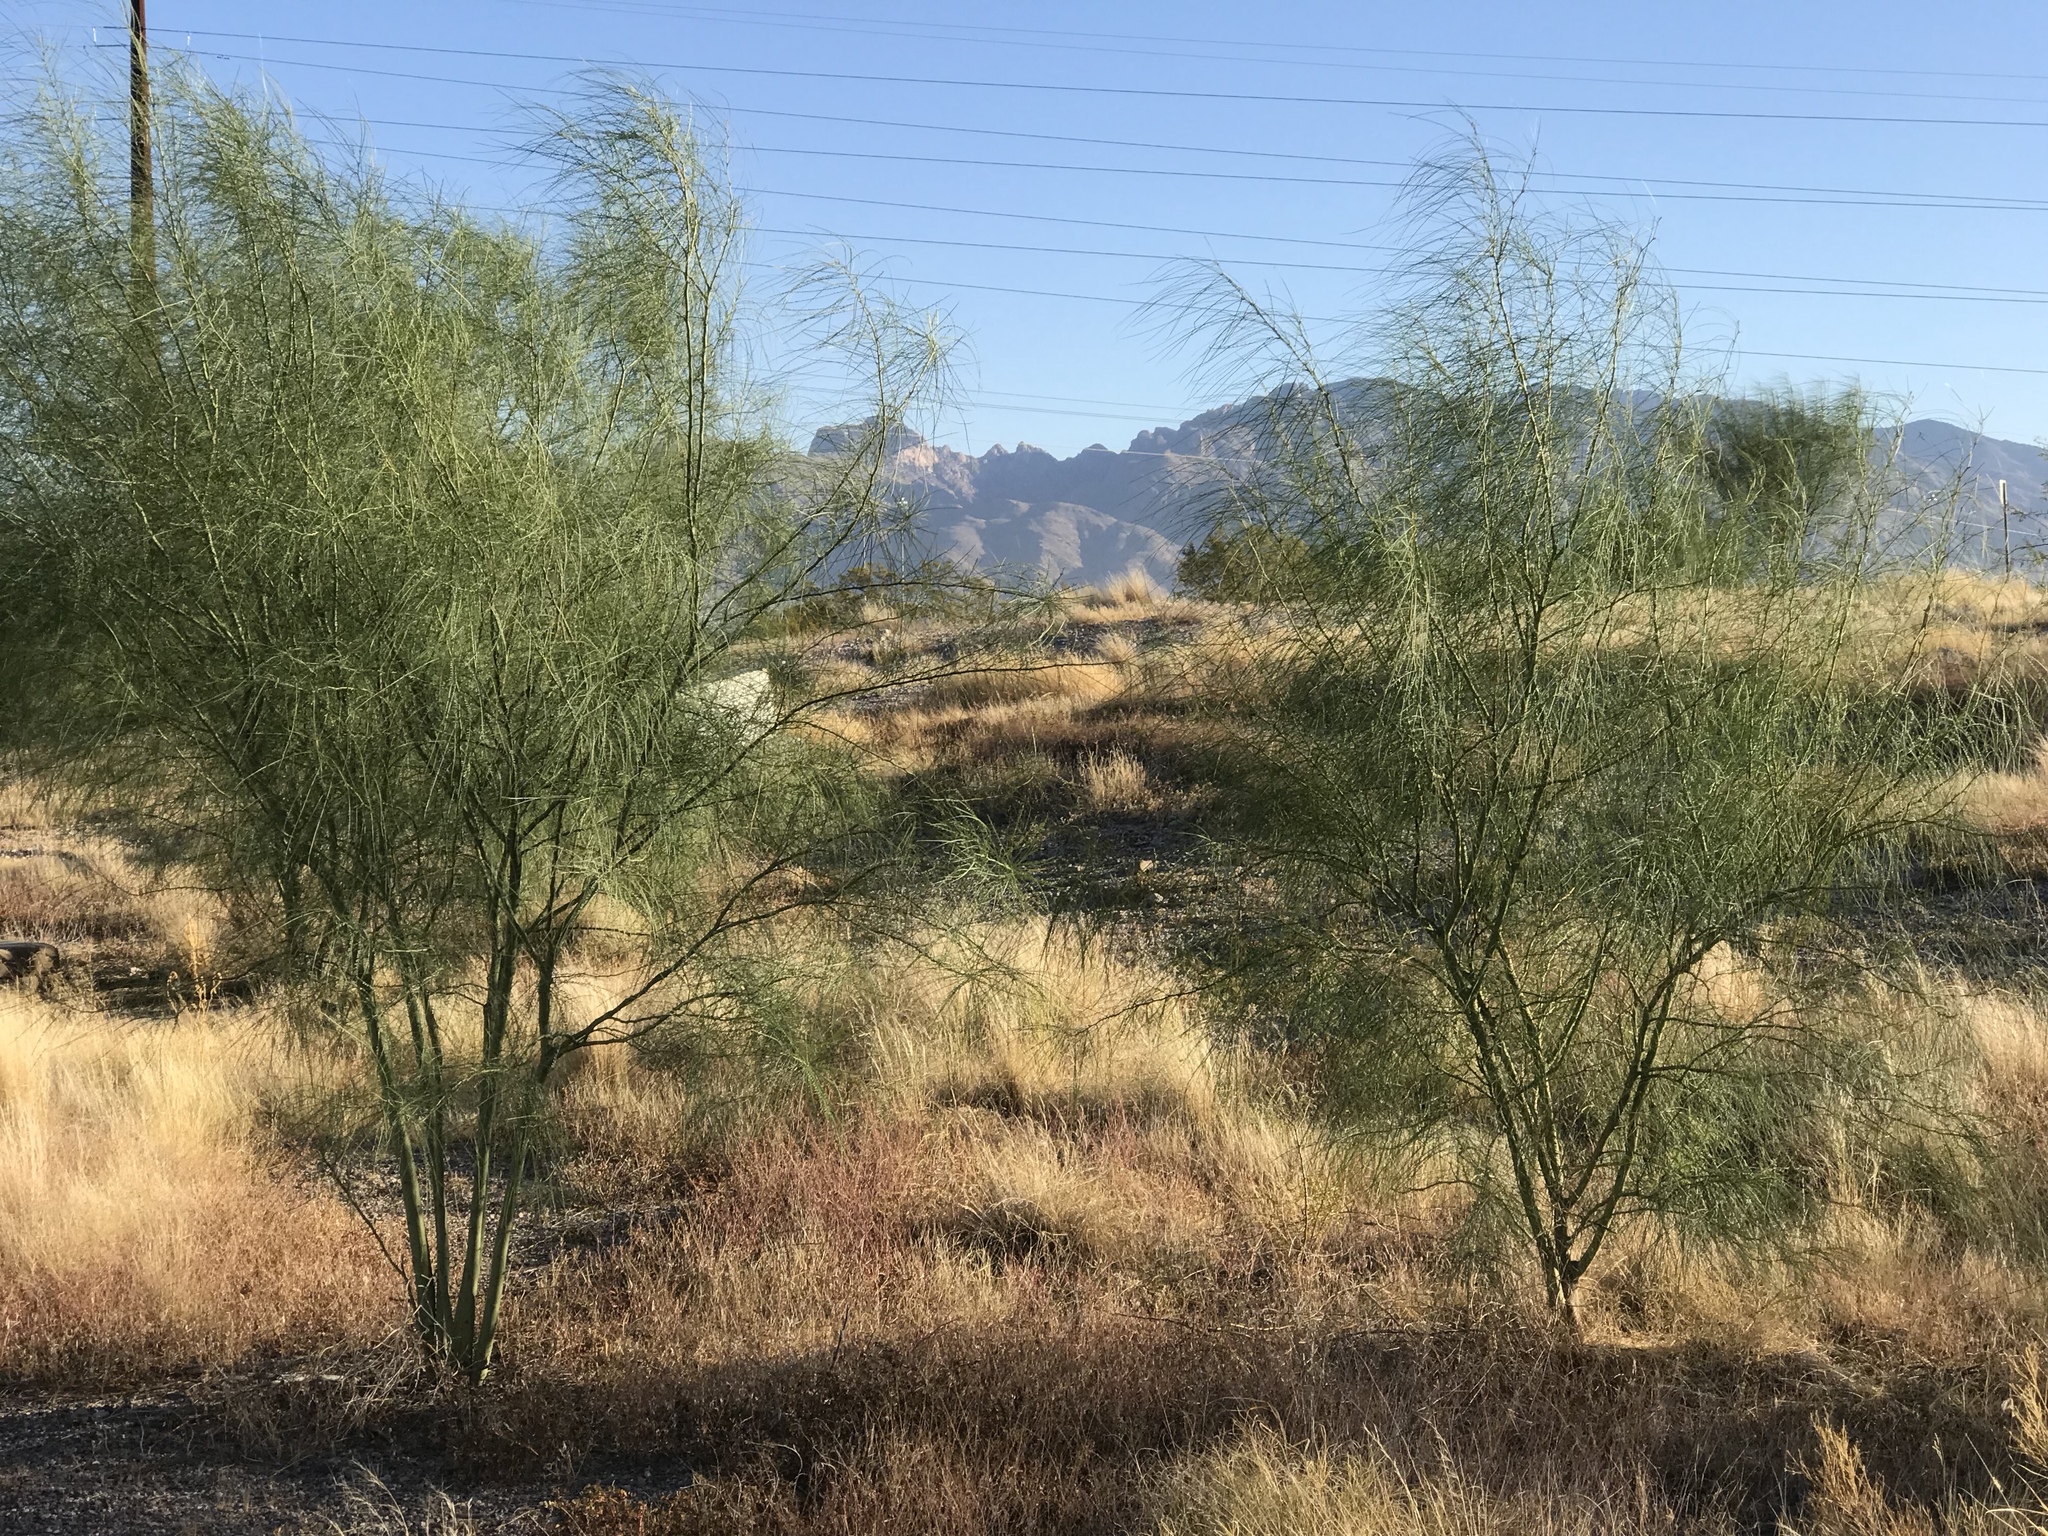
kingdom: Plantae
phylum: Tracheophyta
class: Magnoliopsida
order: Fabales
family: Fabaceae
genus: Parkinsonia
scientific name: Parkinsonia aculeata
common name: Jerusalem thorn
